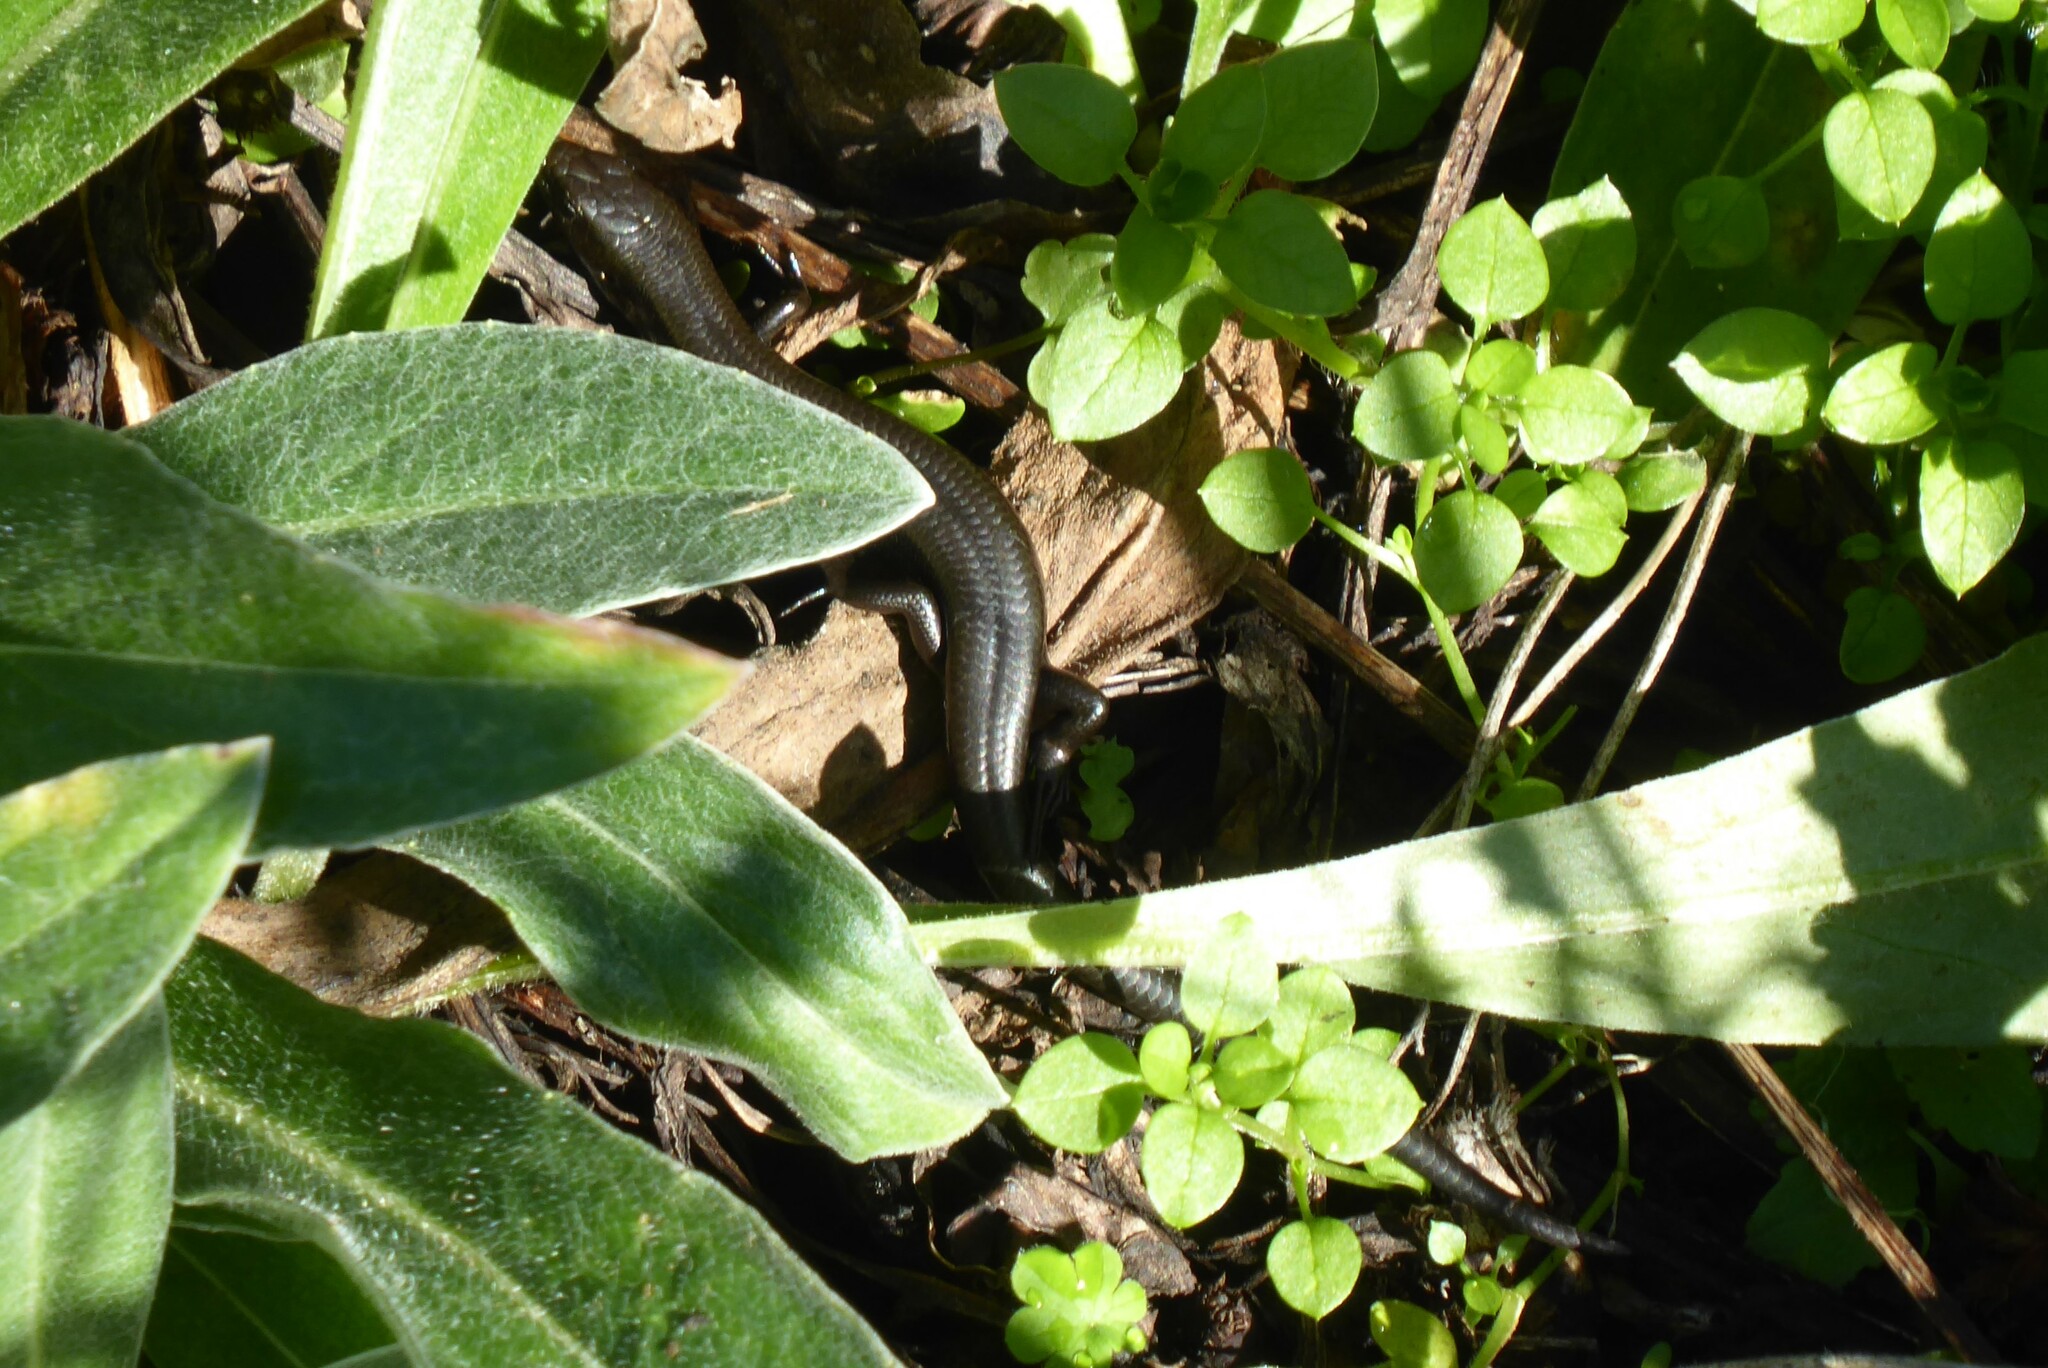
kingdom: Animalia
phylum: Chordata
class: Squamata
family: Scincidae
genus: Oligosoma
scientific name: Oligosoma polychroma
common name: Common new zealand skink
